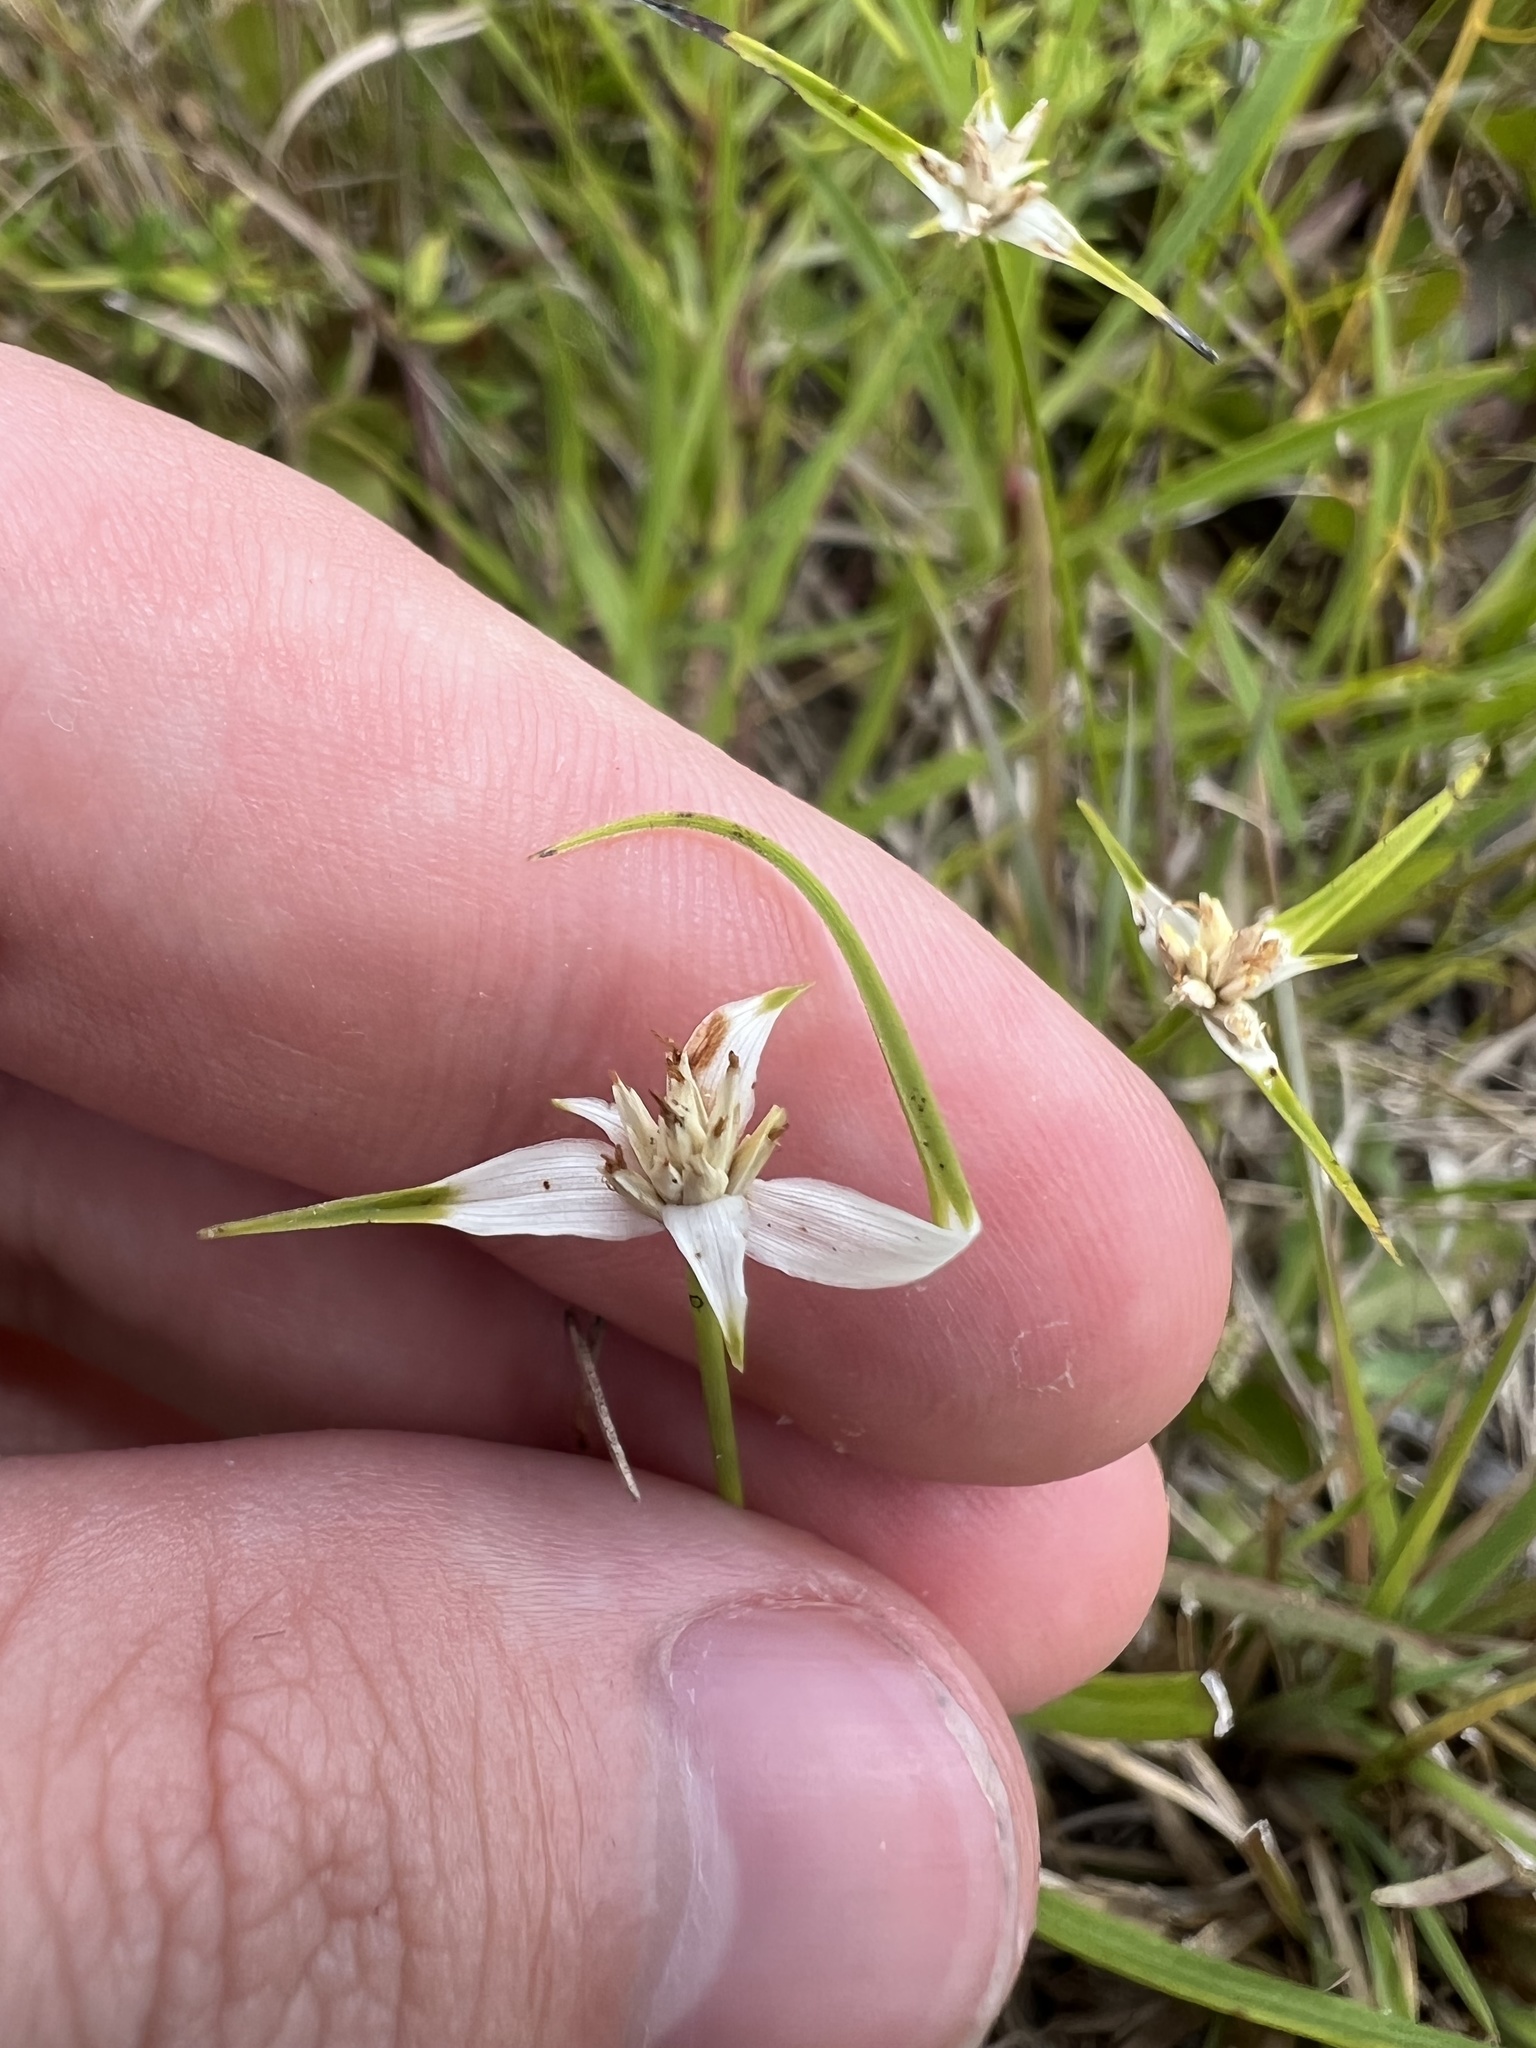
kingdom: Plantae
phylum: Tracheophyta
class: Liliopsida
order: Poales
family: Cyperaceae
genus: Rhynchospora
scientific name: Rhynchospora colorata
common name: Star sedge
